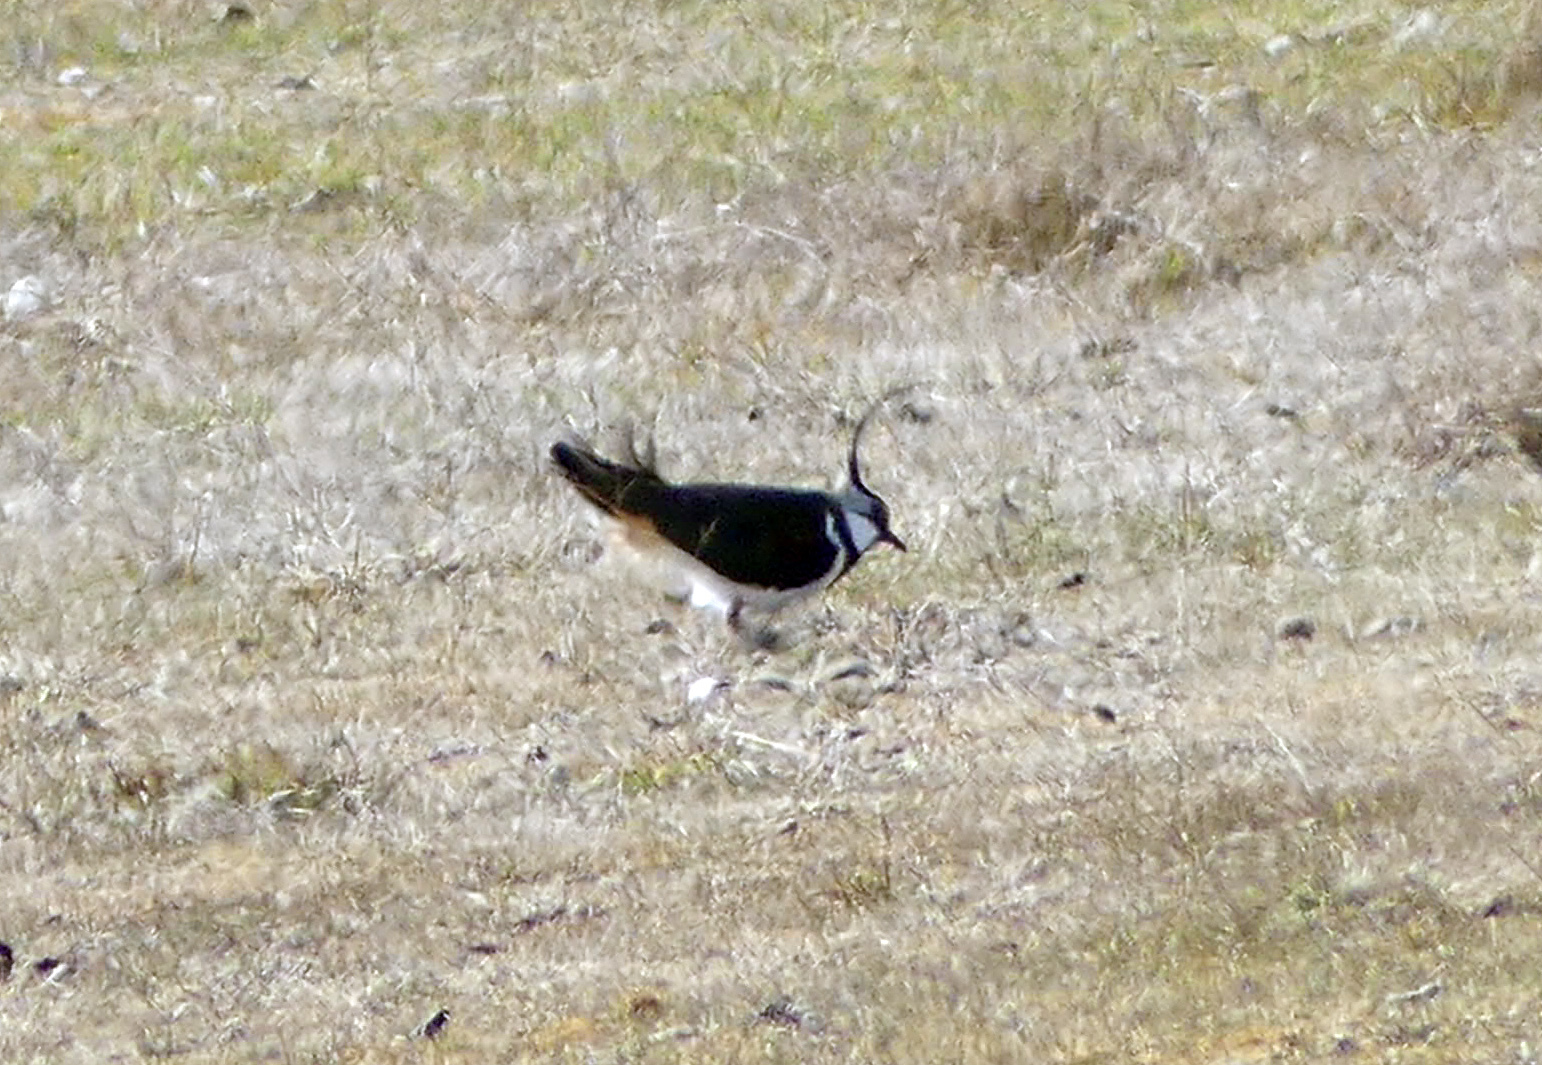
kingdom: Animalia
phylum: Chordata
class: Aves
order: Charadriiformes
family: Charadriidae
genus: Vanellus
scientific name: Vanellus vanellus
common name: Northern lapwing
